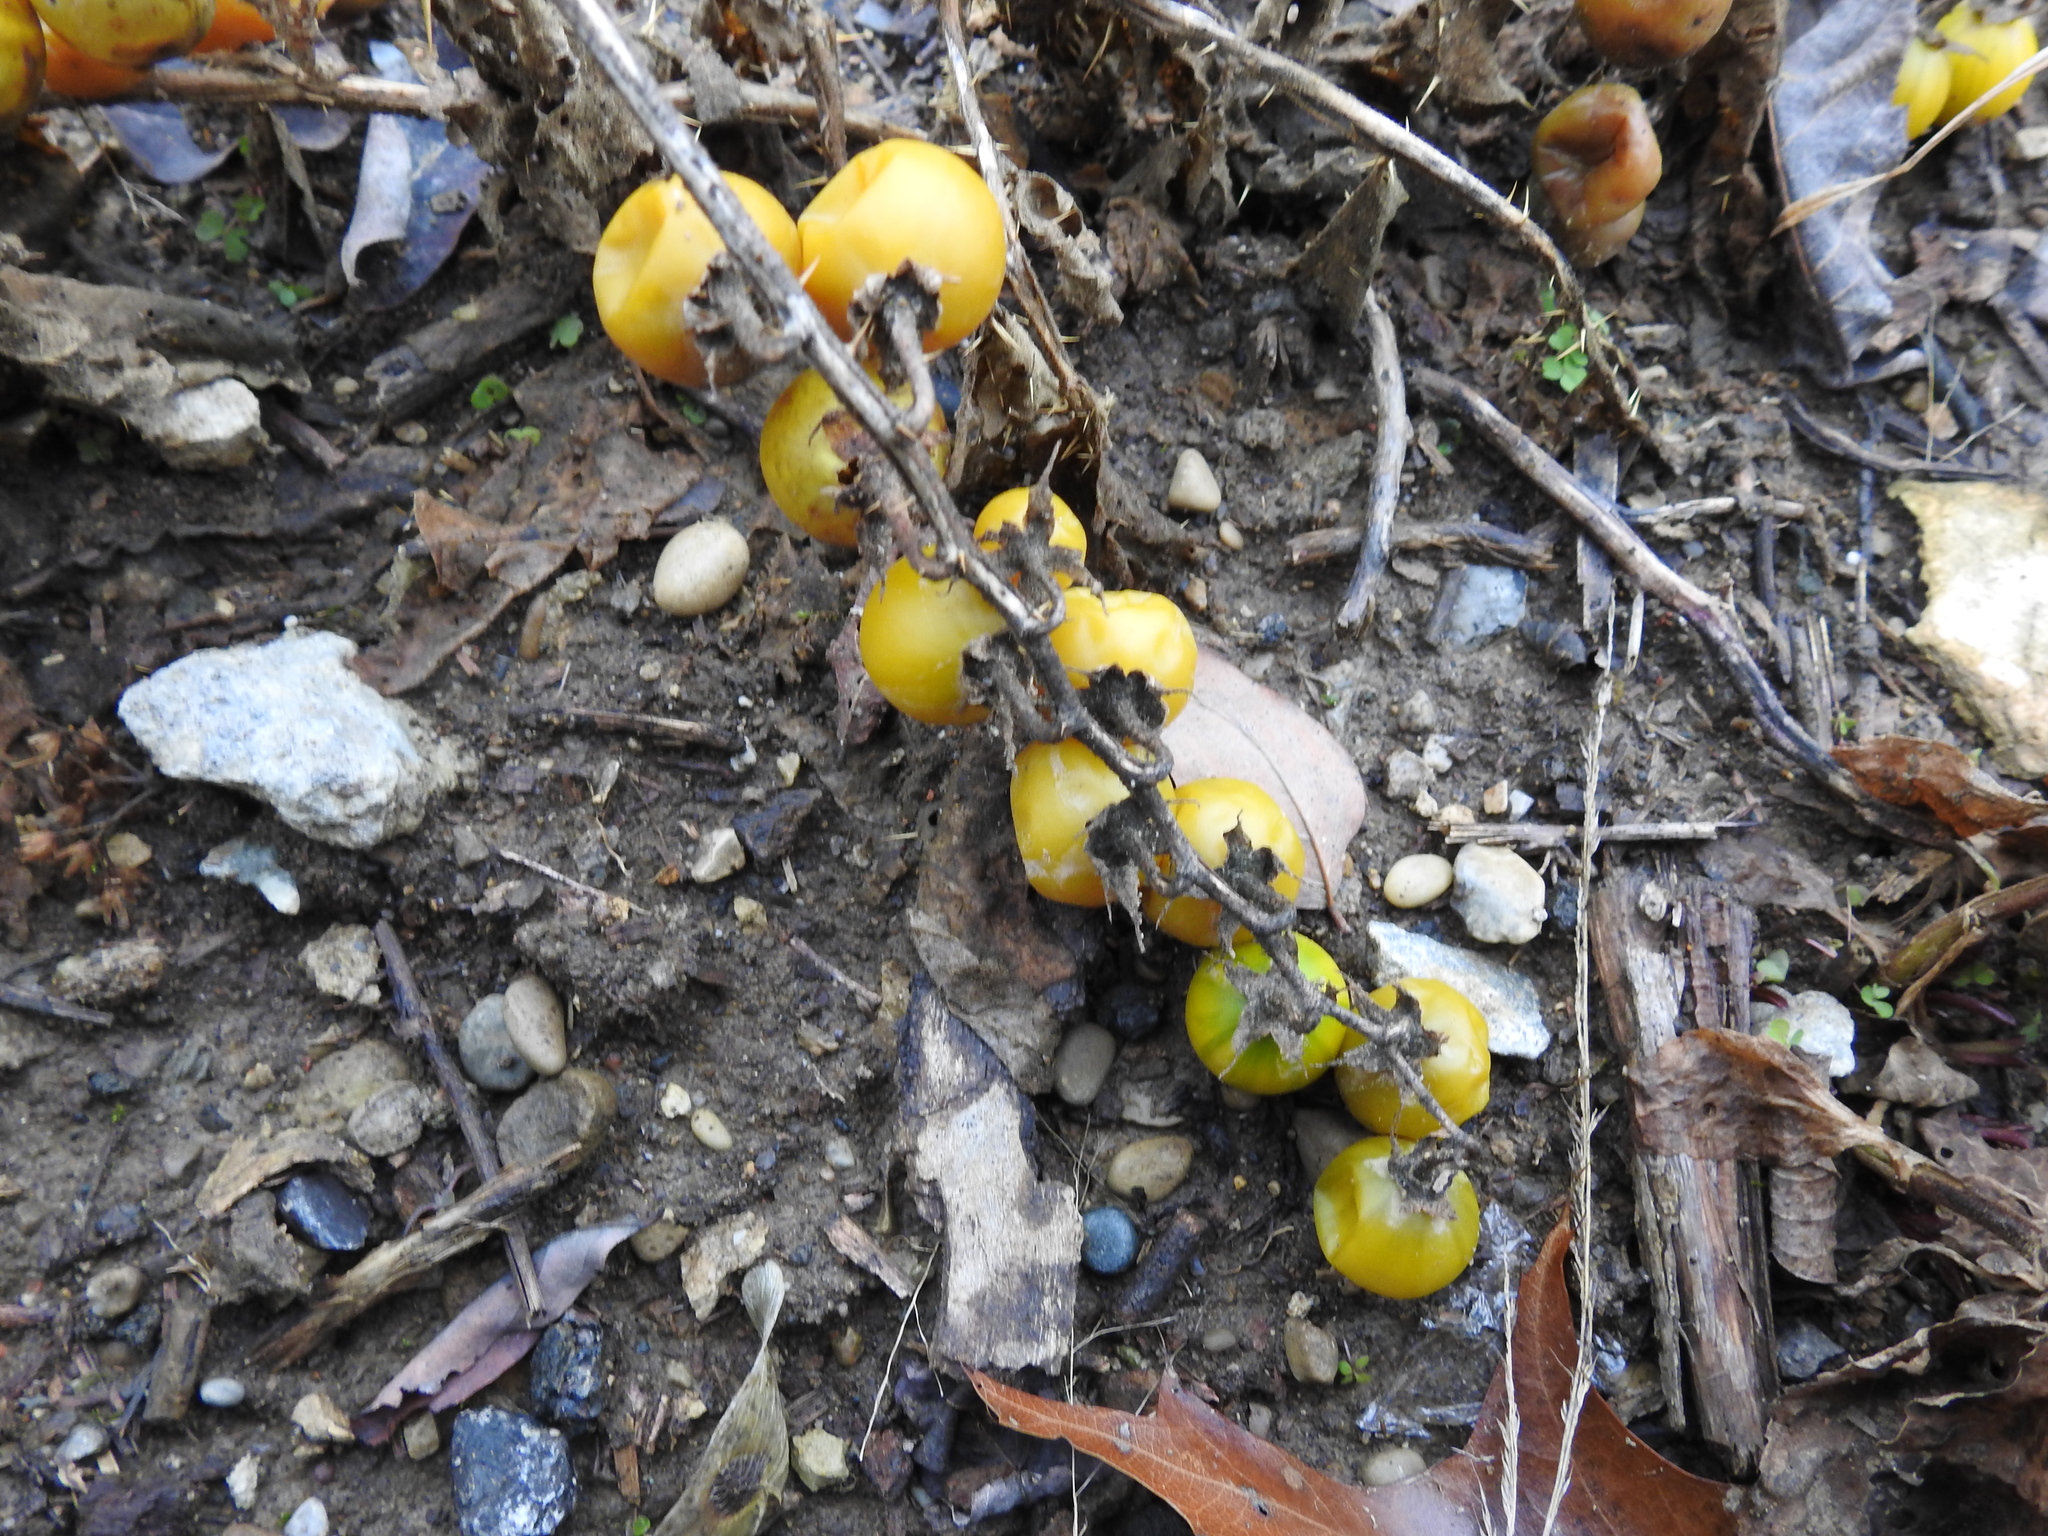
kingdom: Plantae
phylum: Tracheophyta
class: Magnoliopsida
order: Solanales
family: Solanaceae
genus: Solanum
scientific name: Solanum carolinense
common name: Horse-nettle
